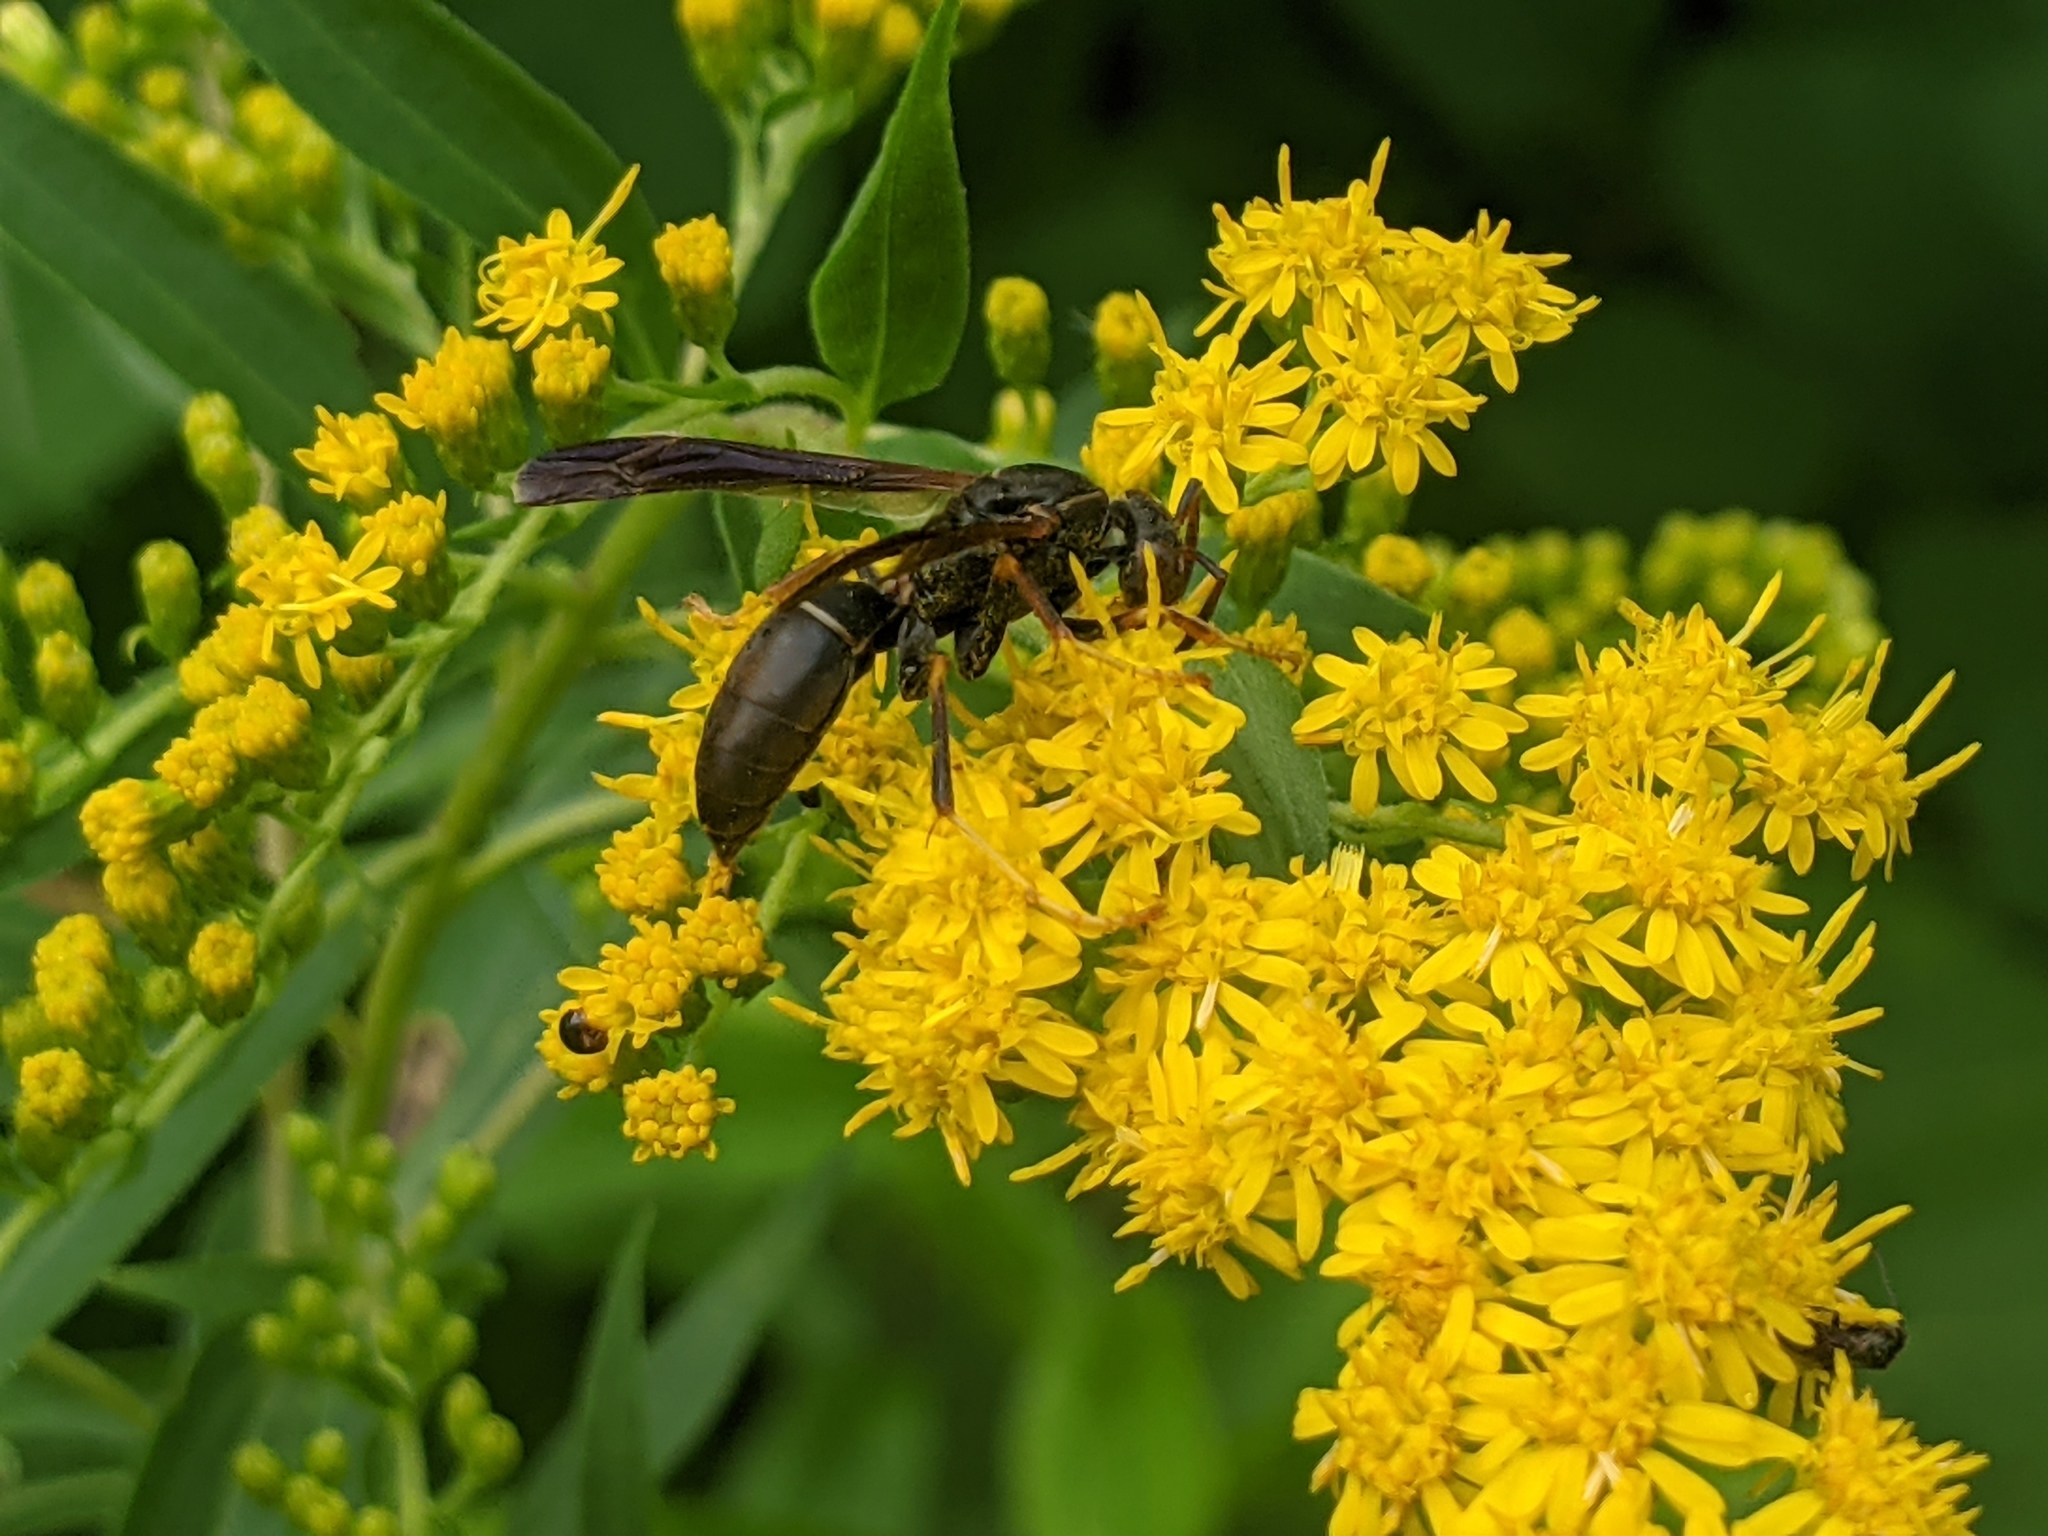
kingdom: Animalia
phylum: Arthropoda
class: Insecta
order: Hymenoptera
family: Eumenidae
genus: Polistes
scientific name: Polistes fuscatus
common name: Dark paper wasp
